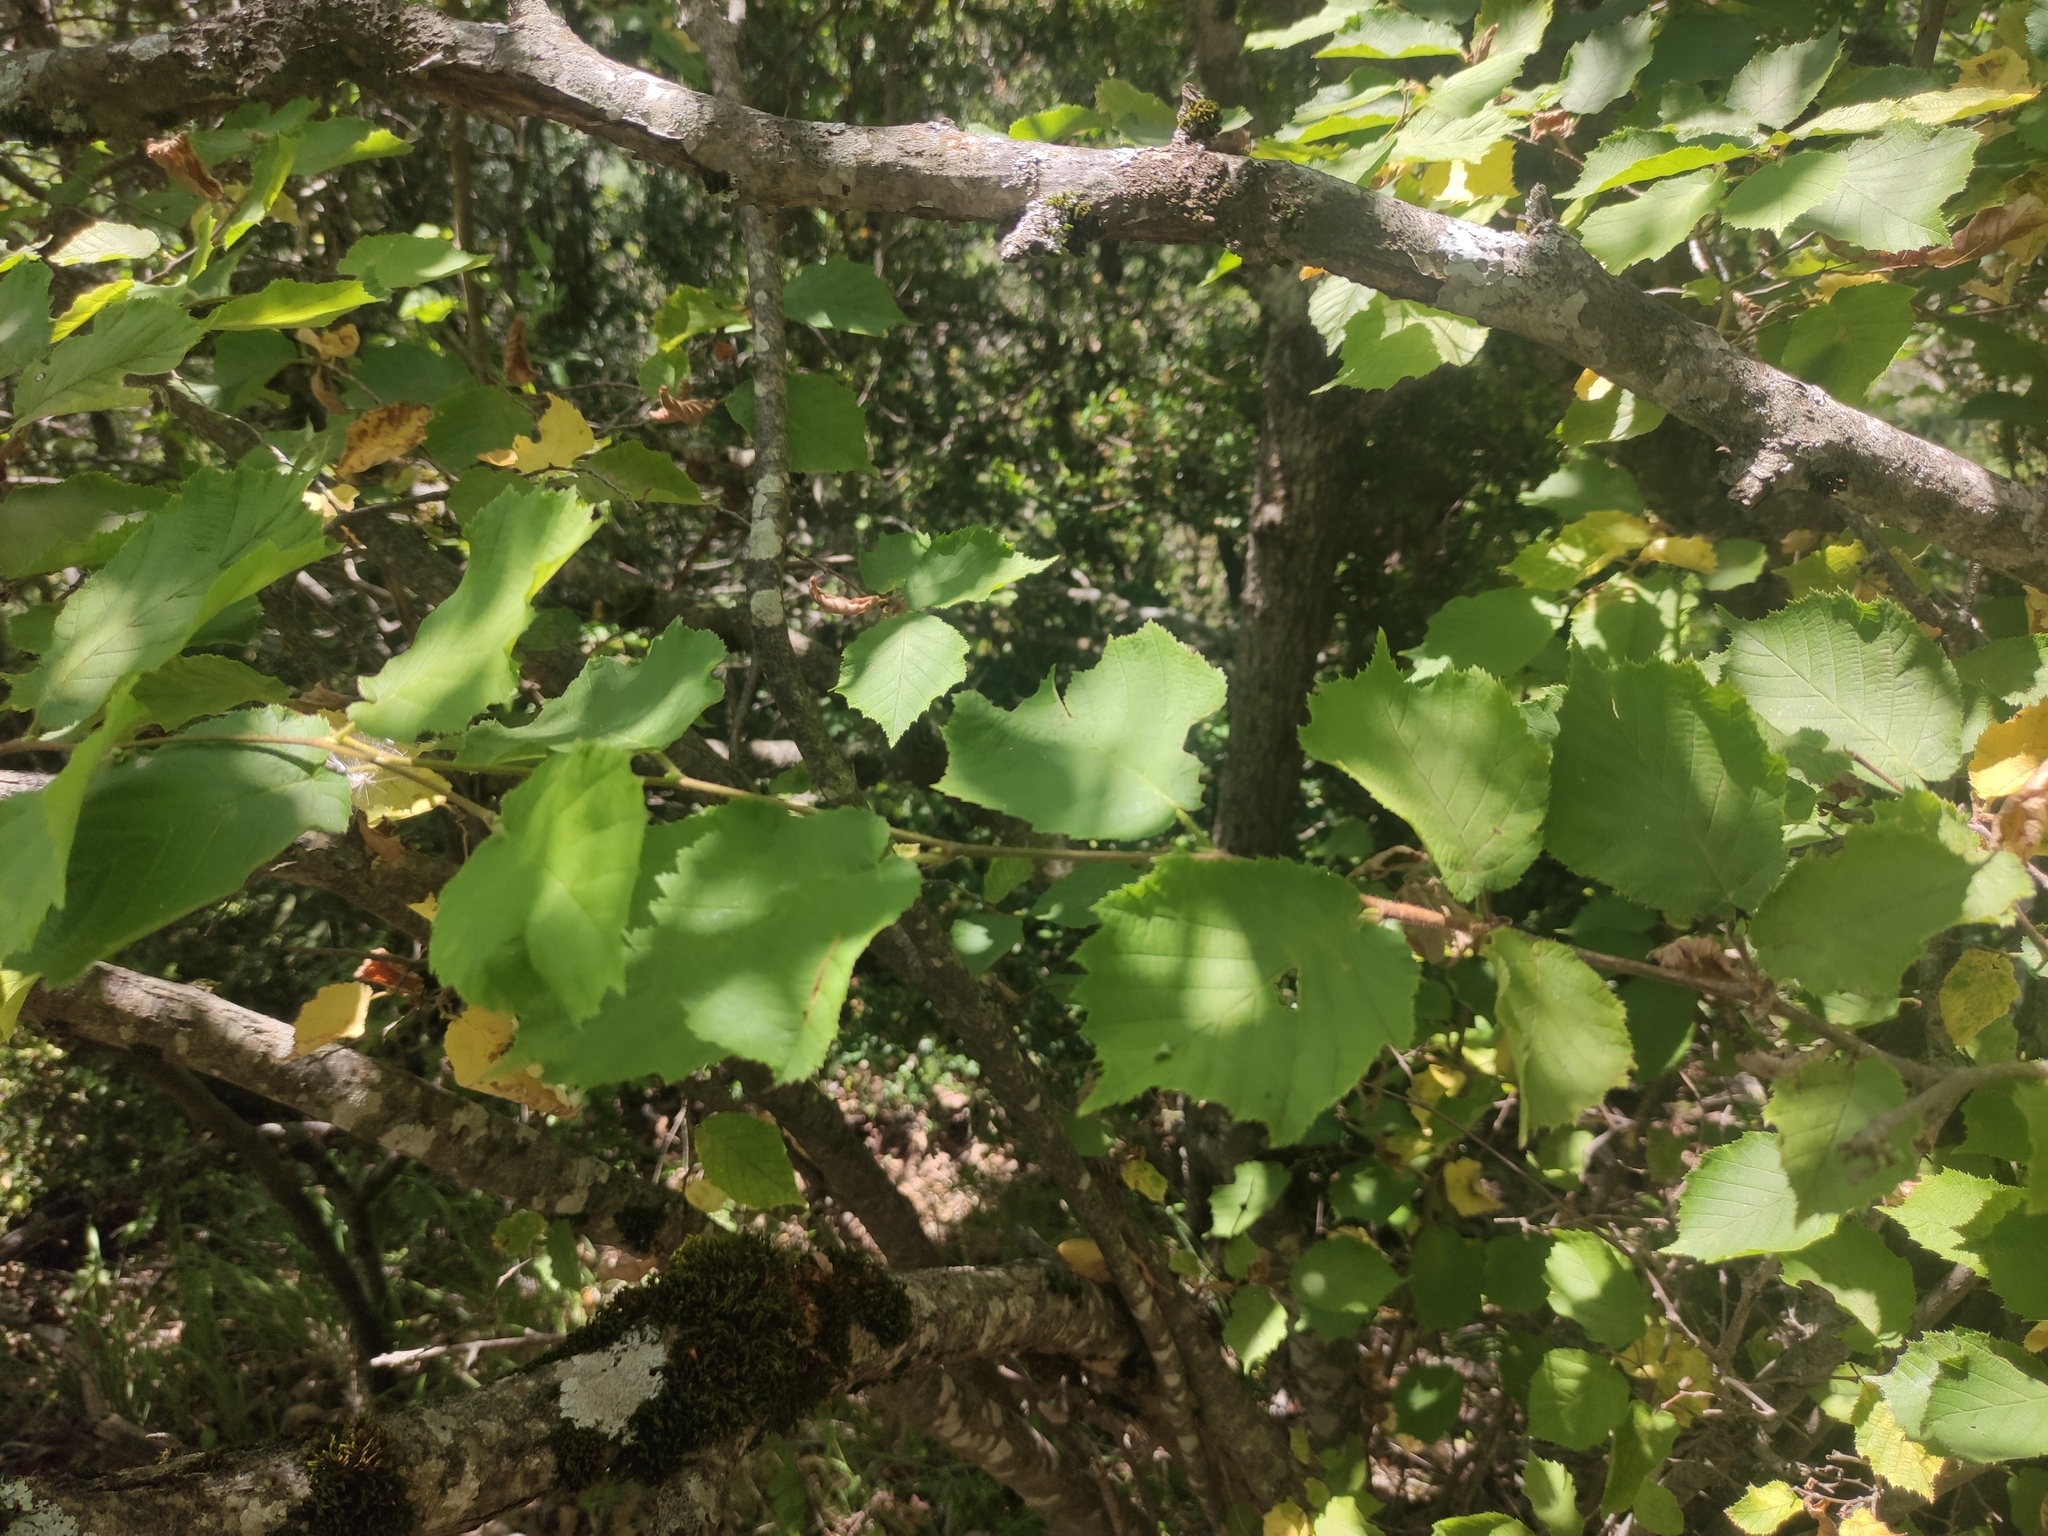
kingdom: Plantae
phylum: Tracheophyta
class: Magnoliopsida
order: Fagales
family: Betulaceae
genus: Corylus
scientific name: Corylus avellana
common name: European hazel
